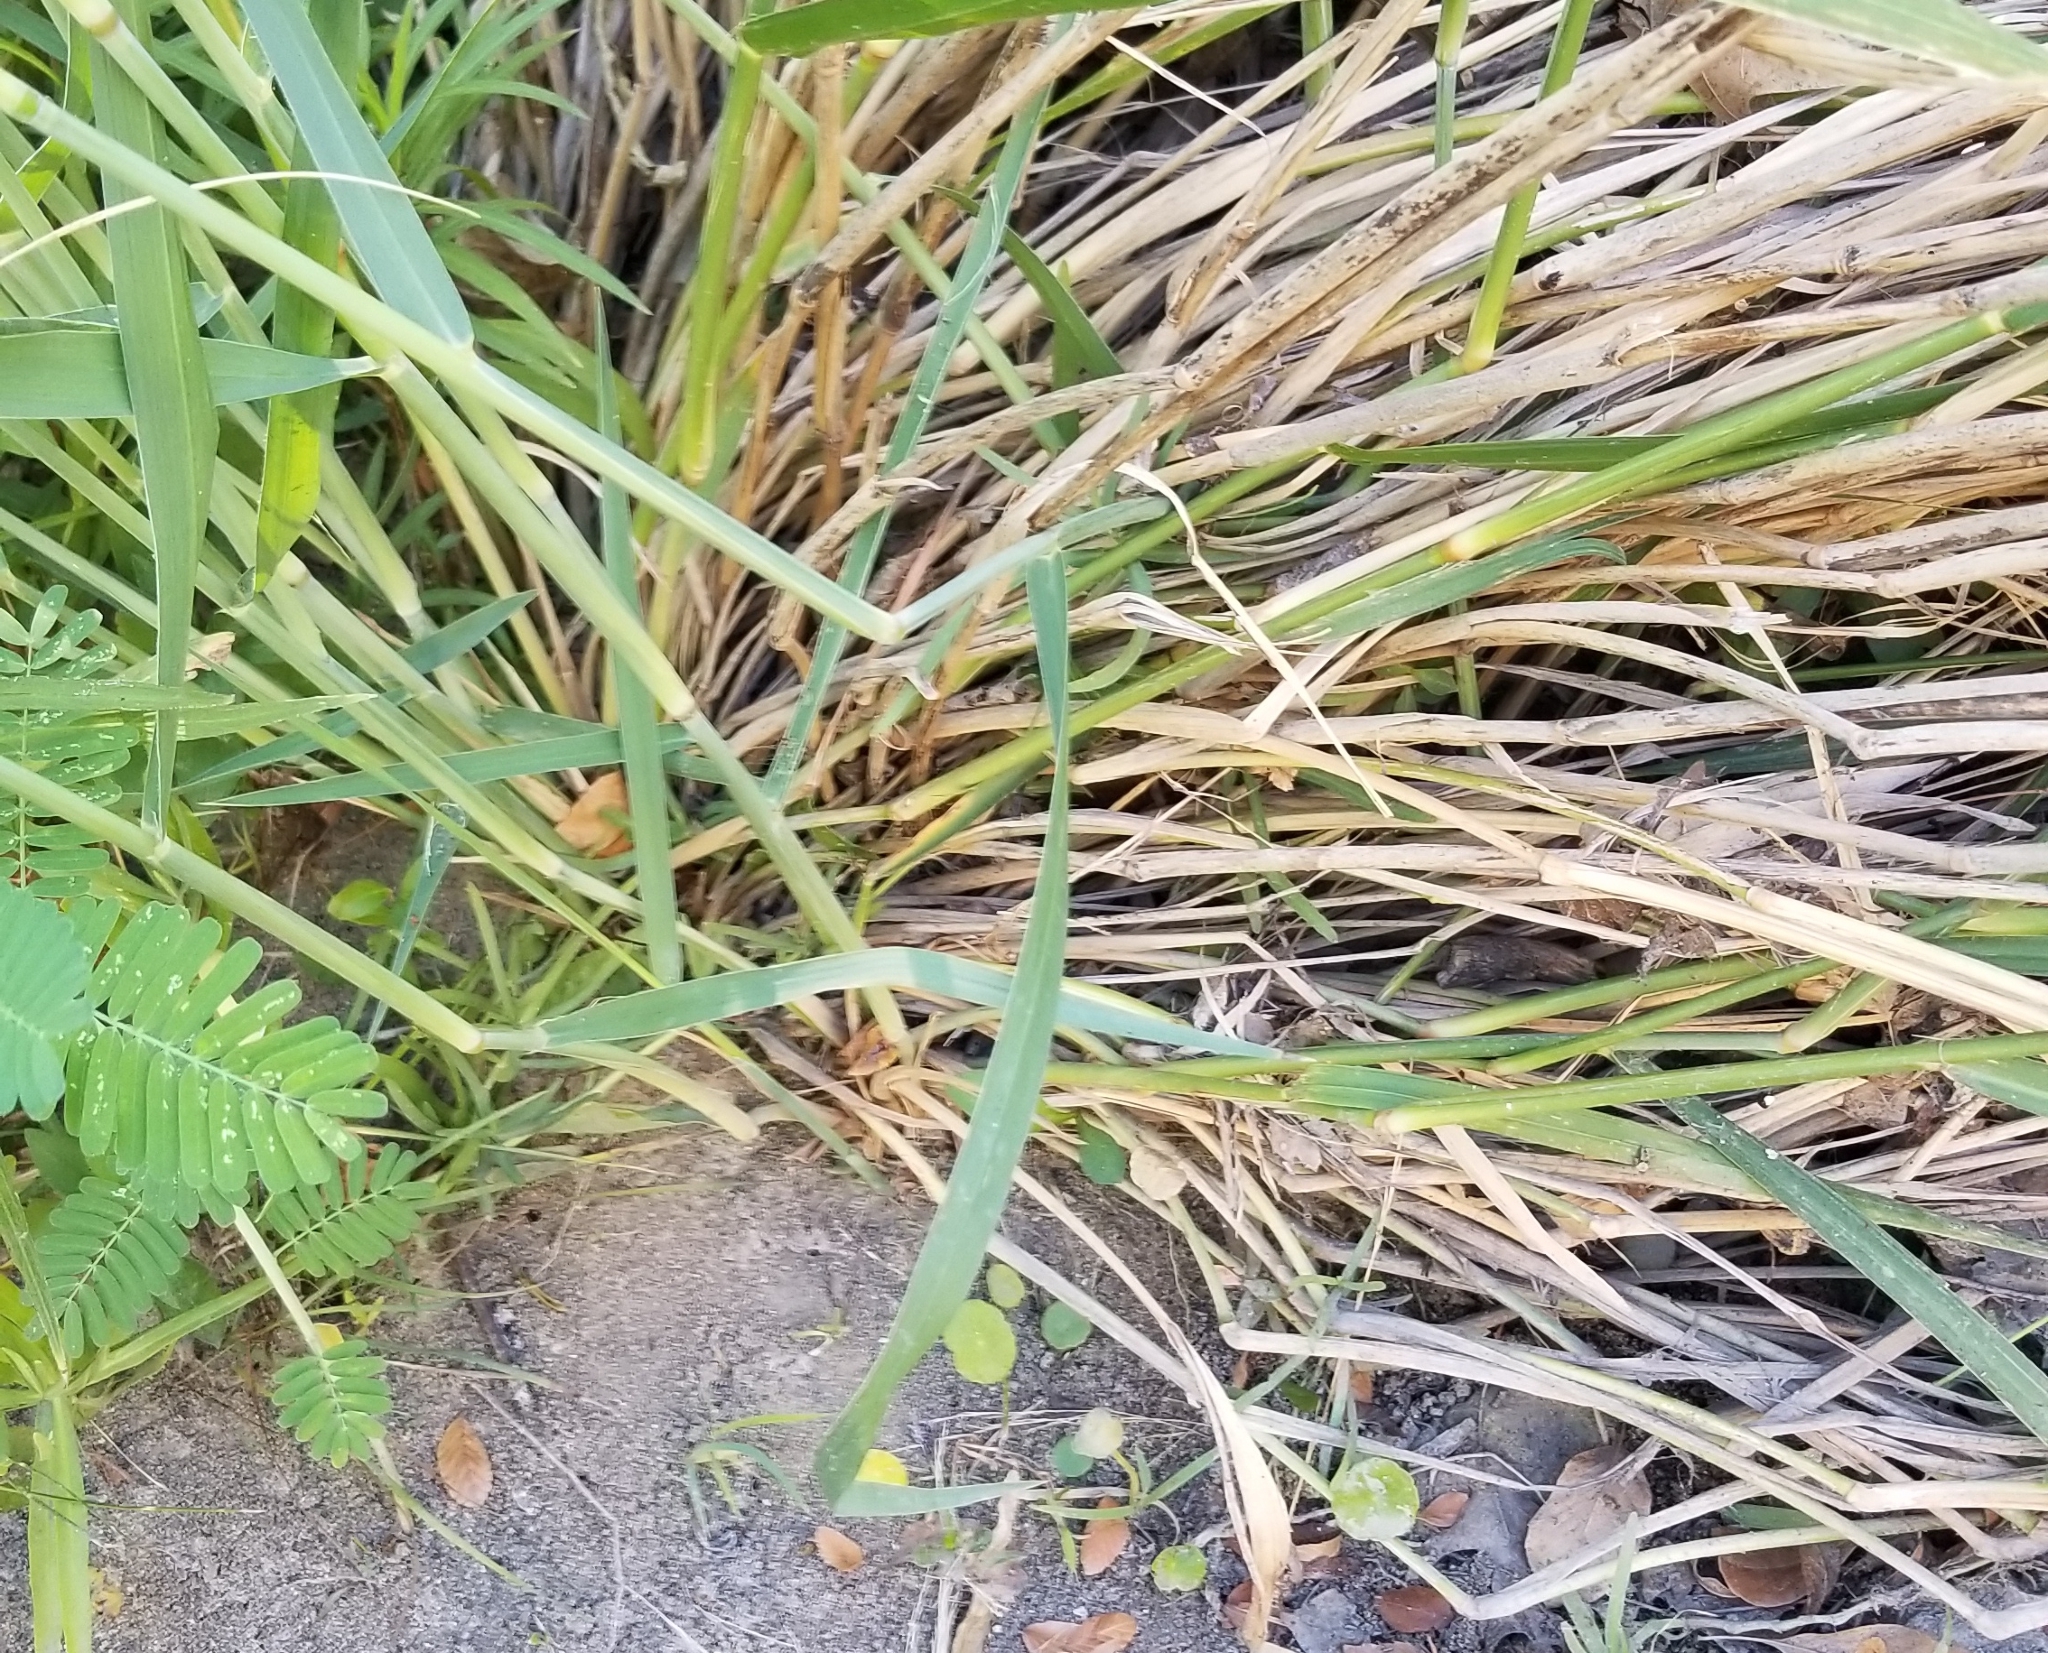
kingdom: Plantae
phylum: Tracheophyta
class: Liliopsida
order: Poales
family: Poaceae
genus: Panicum
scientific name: Panicum virgatum
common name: Switchgrass
